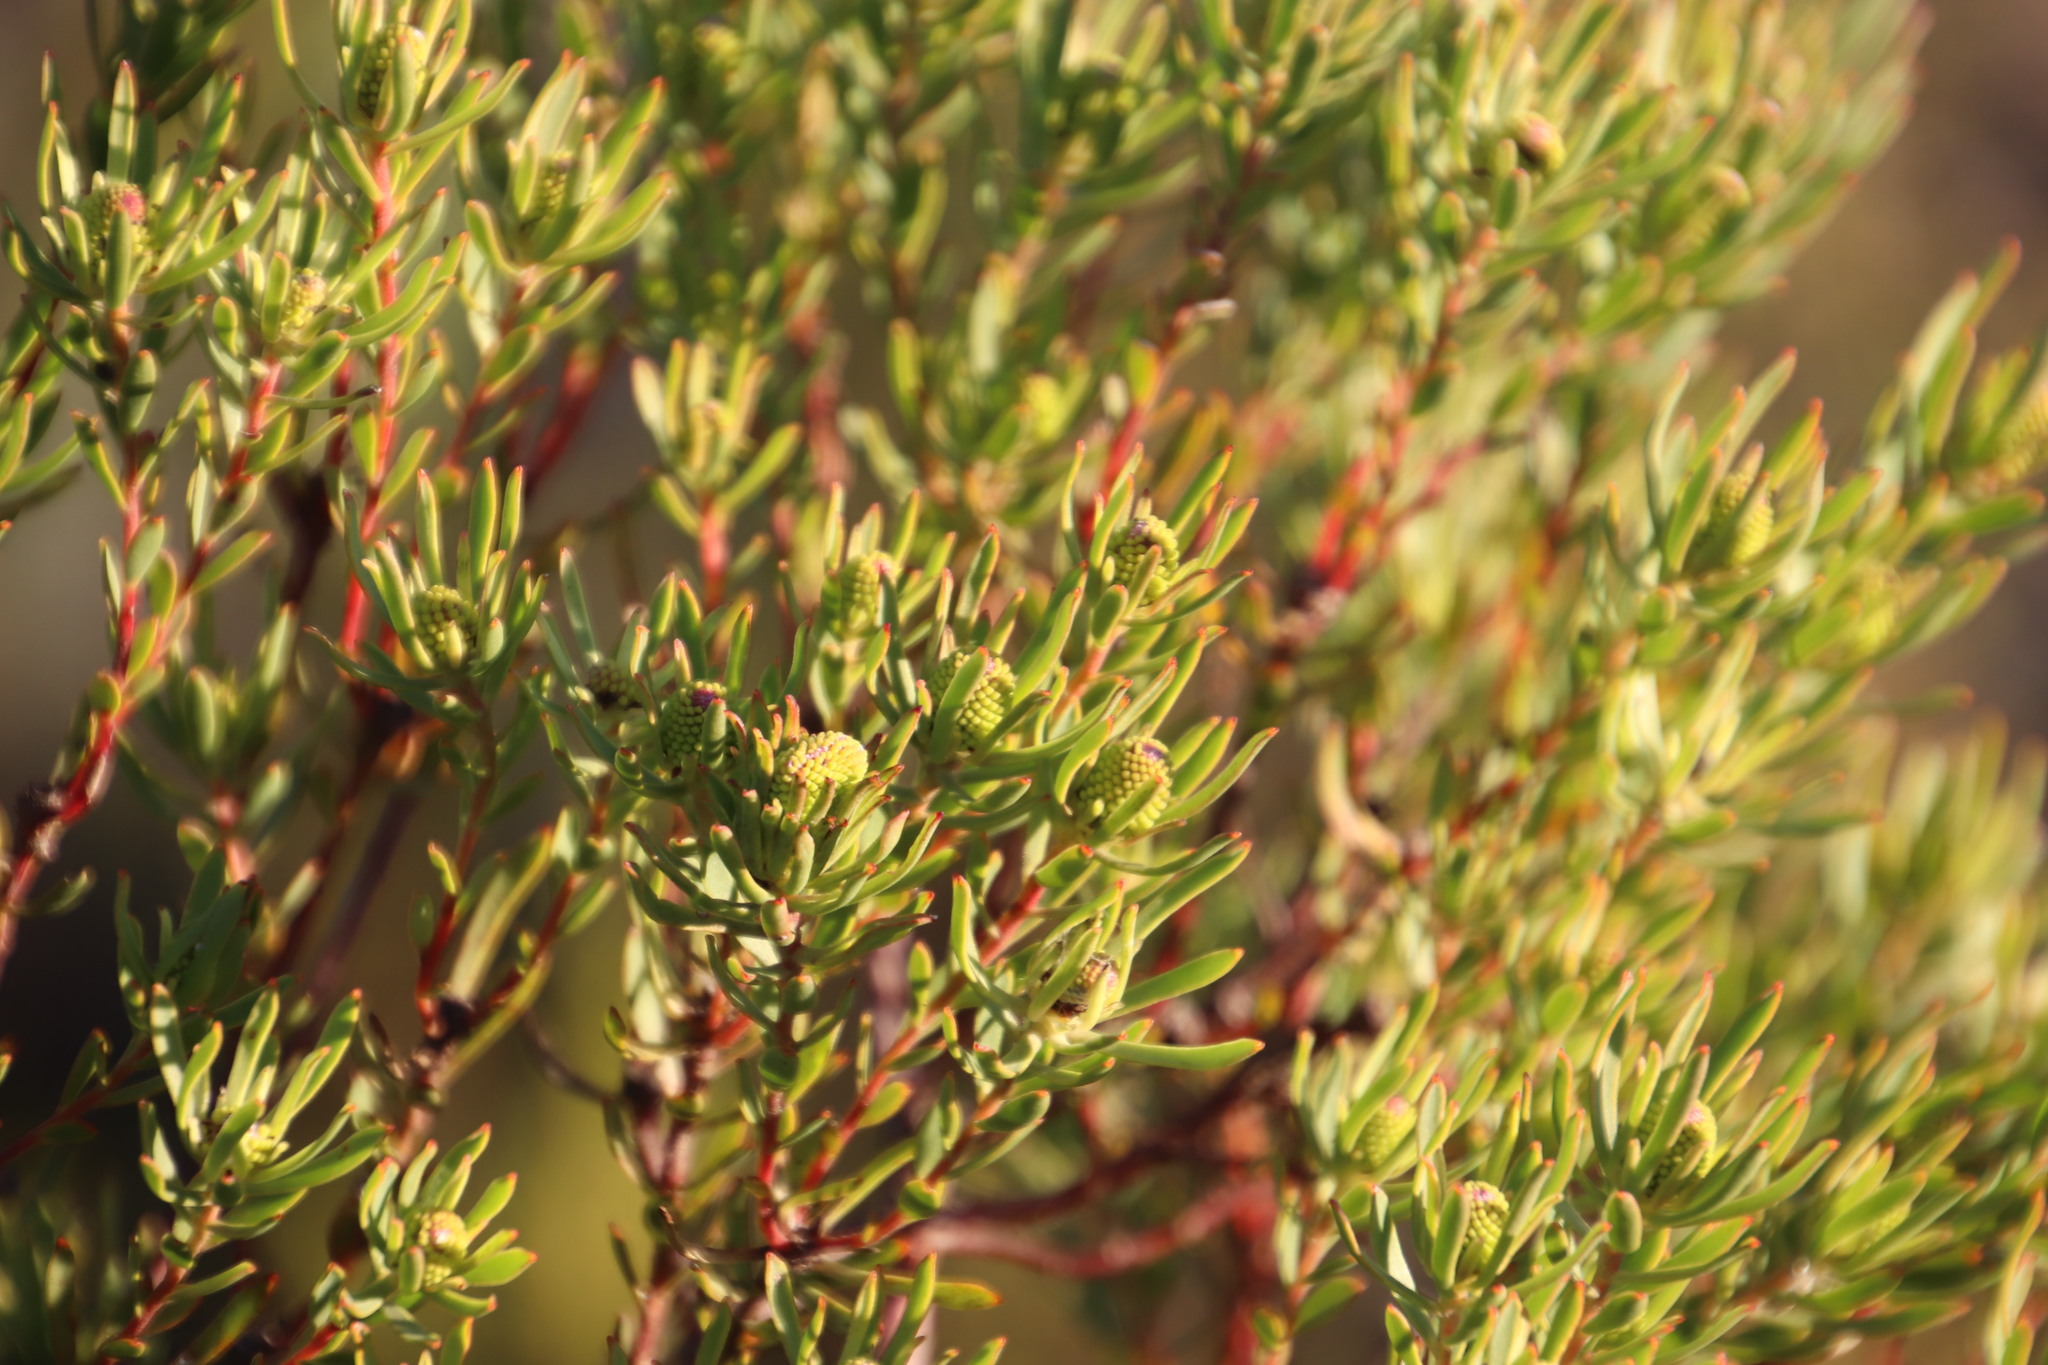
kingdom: Plantae
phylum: Tracheophyta
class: Magnoliopsida
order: Proteales
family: Proteaceae
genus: Leucadendron
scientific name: Leucadendron modestum
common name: Rough-leaf conebush
